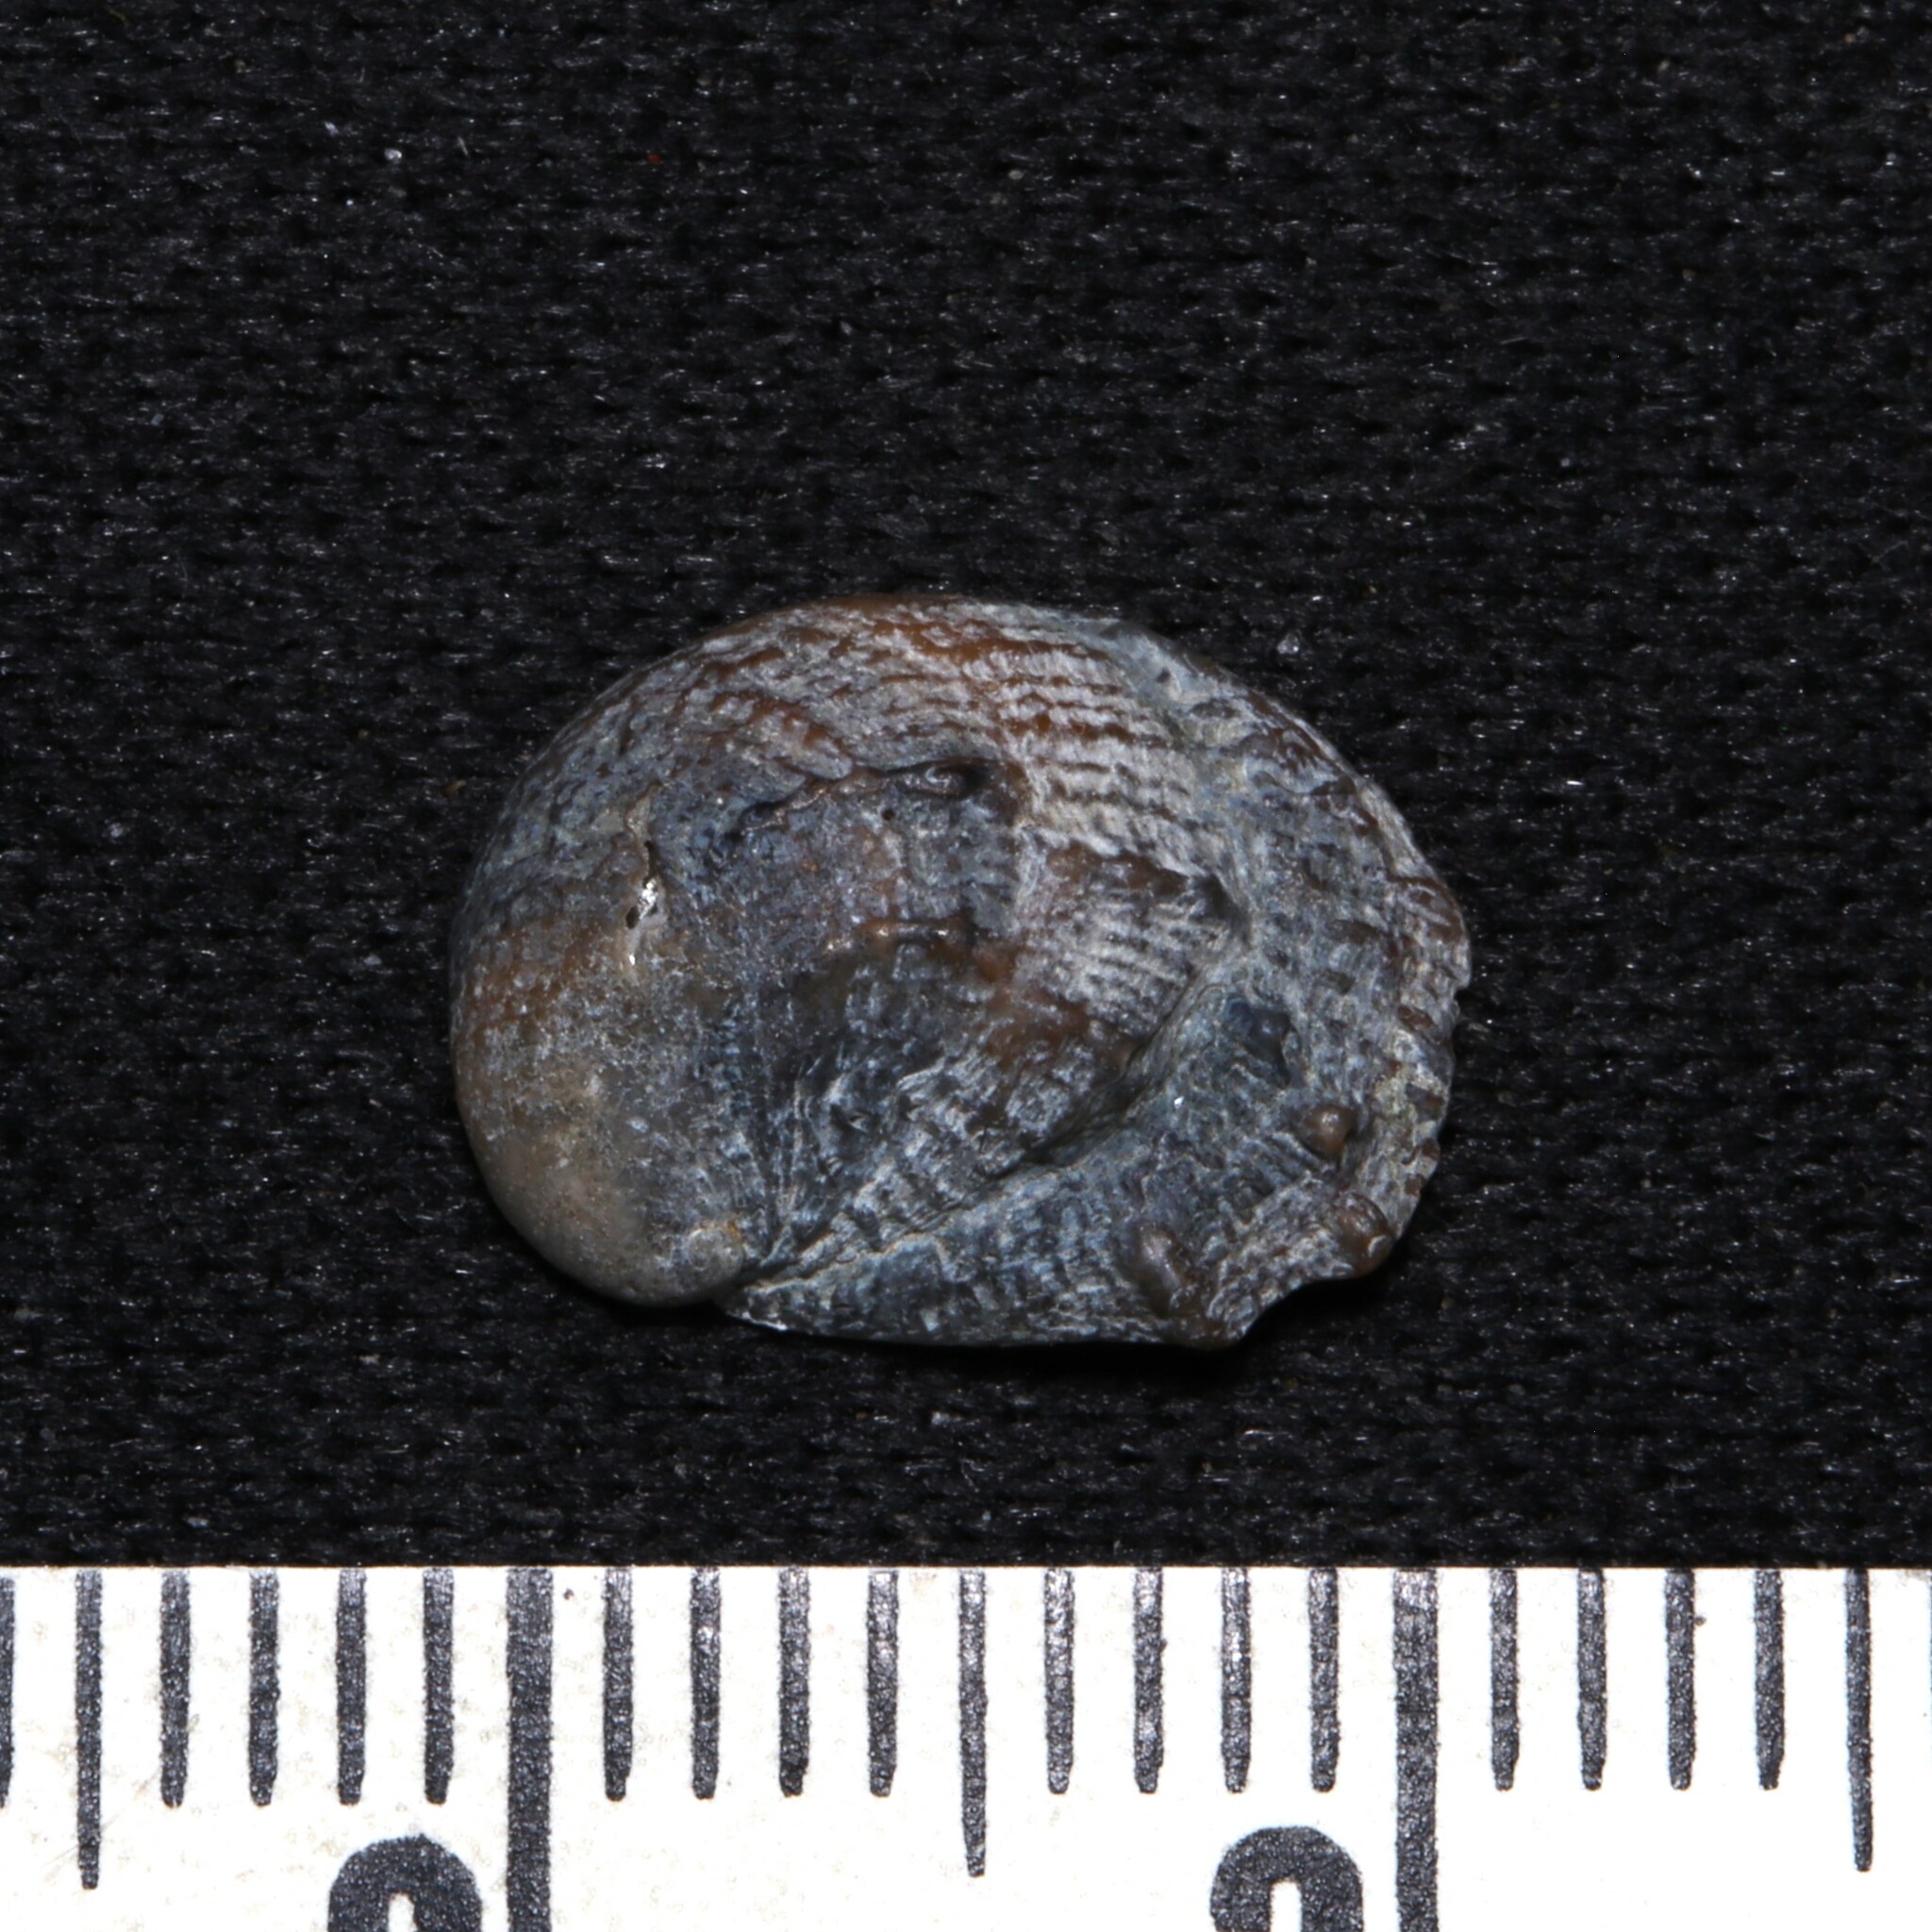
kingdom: Animalia
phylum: Mollusca
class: Gastropoda
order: Littorinimorpha
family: Calyptraeidae
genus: Bostrycapulus
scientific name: Bostrycapulus aculeatus
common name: Spiny slippersnail
